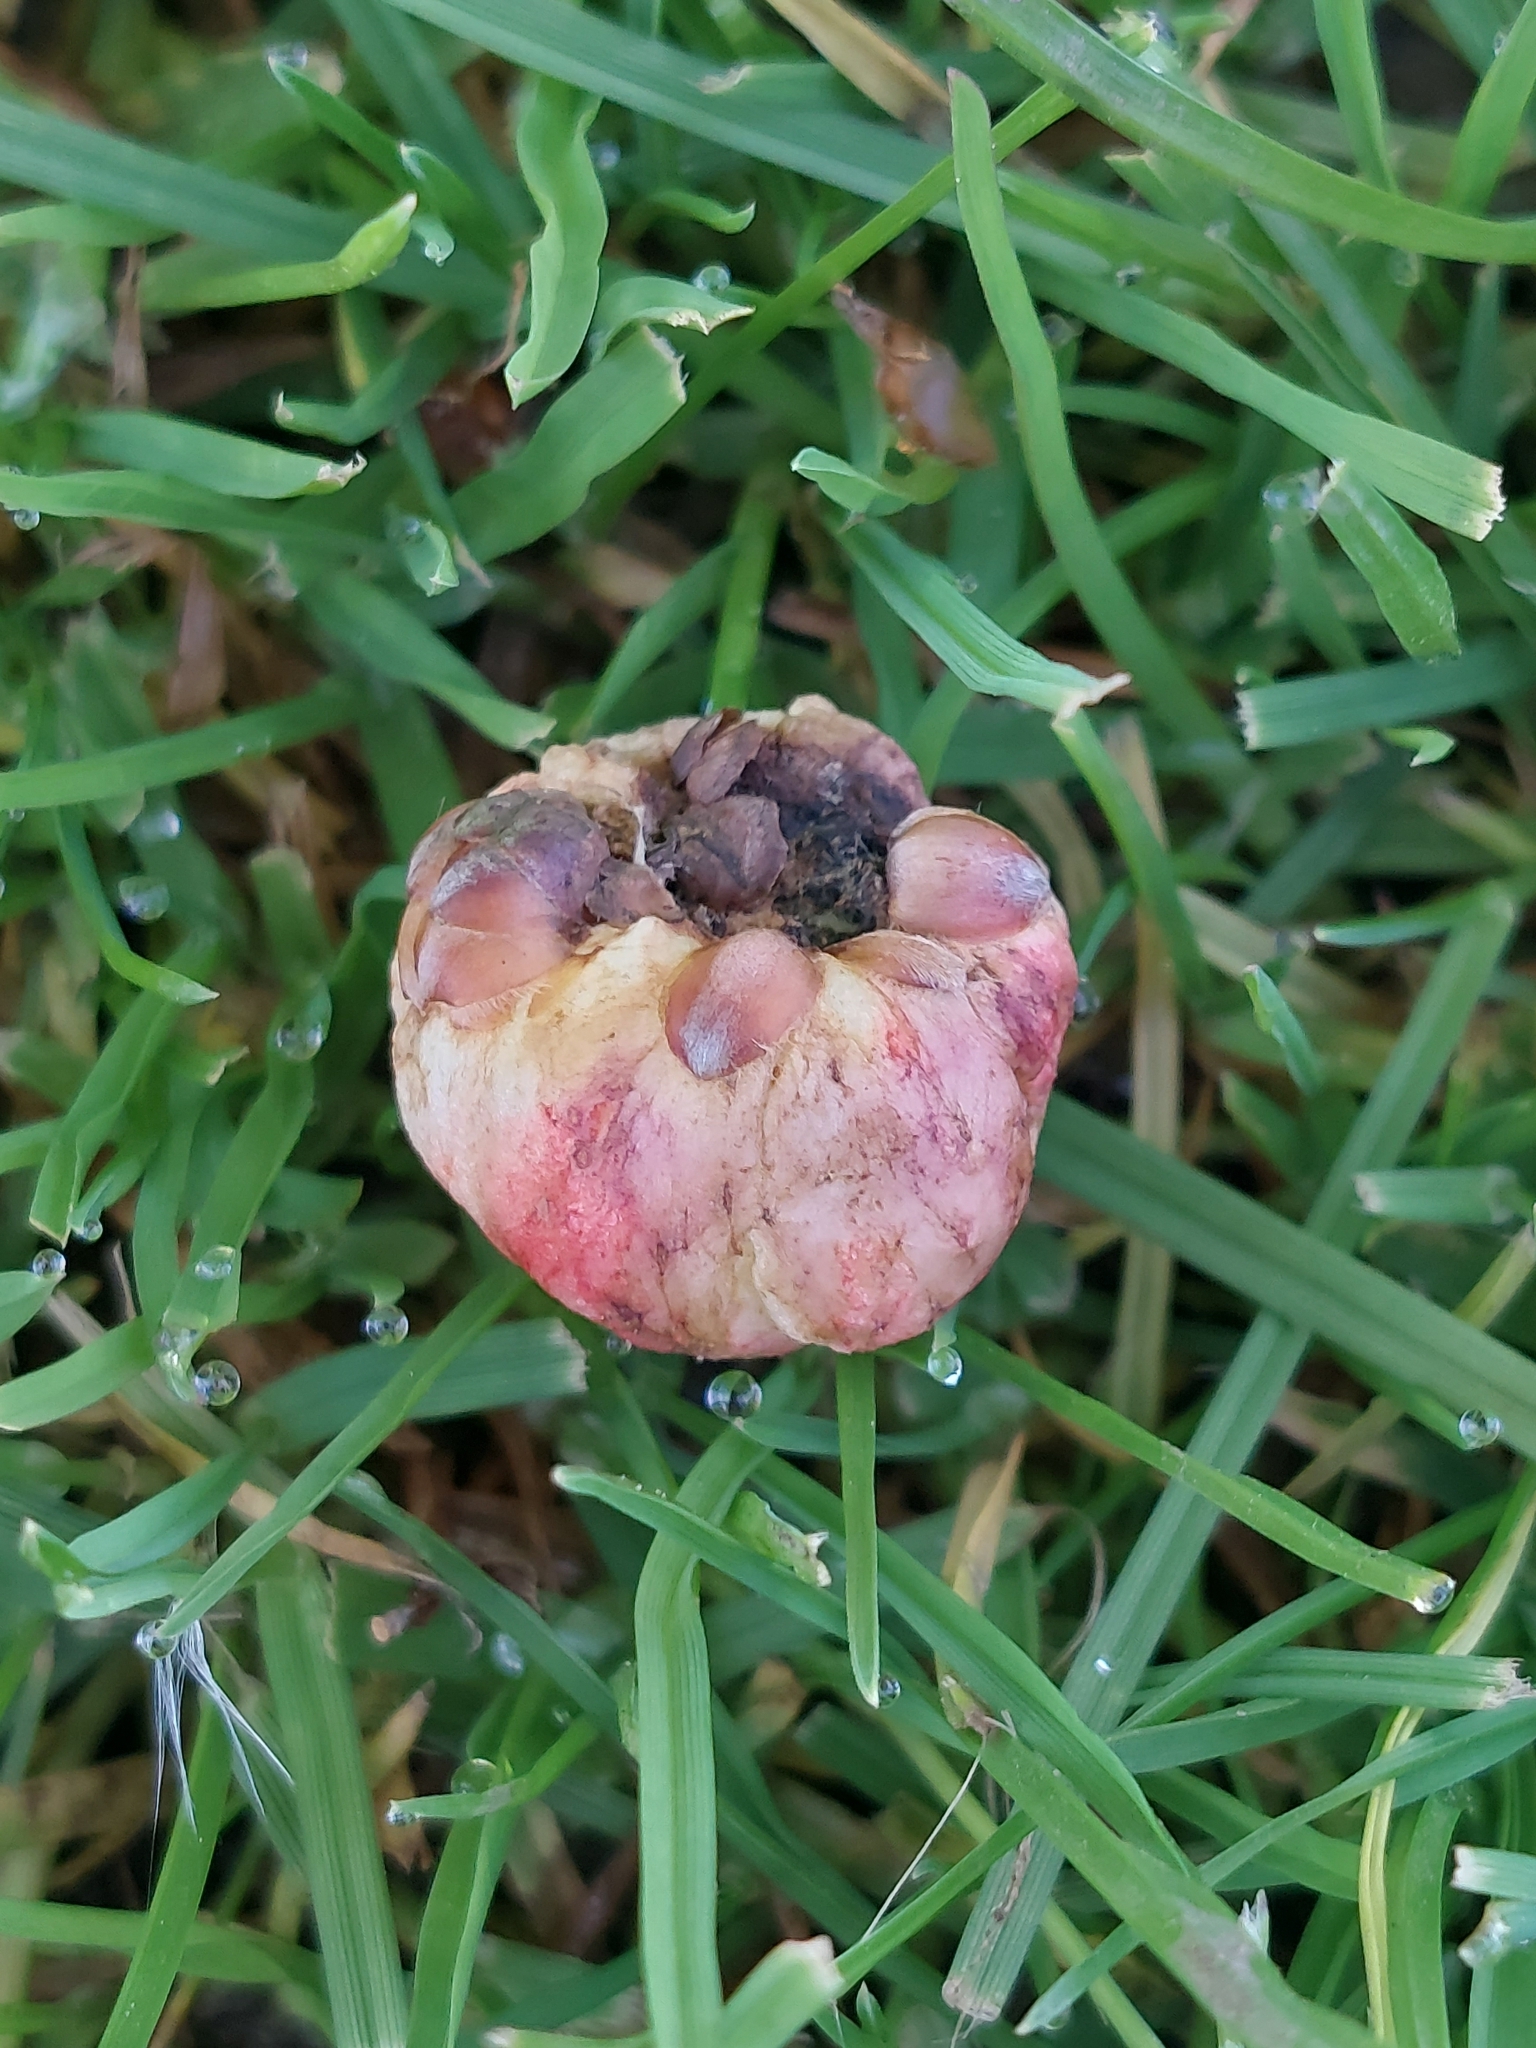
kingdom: Animalia
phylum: Arthropoda
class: Insecta
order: Hymenoptera
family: Cynipidae
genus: Biorhiza
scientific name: Biorhiza pallida
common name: Oak apple
